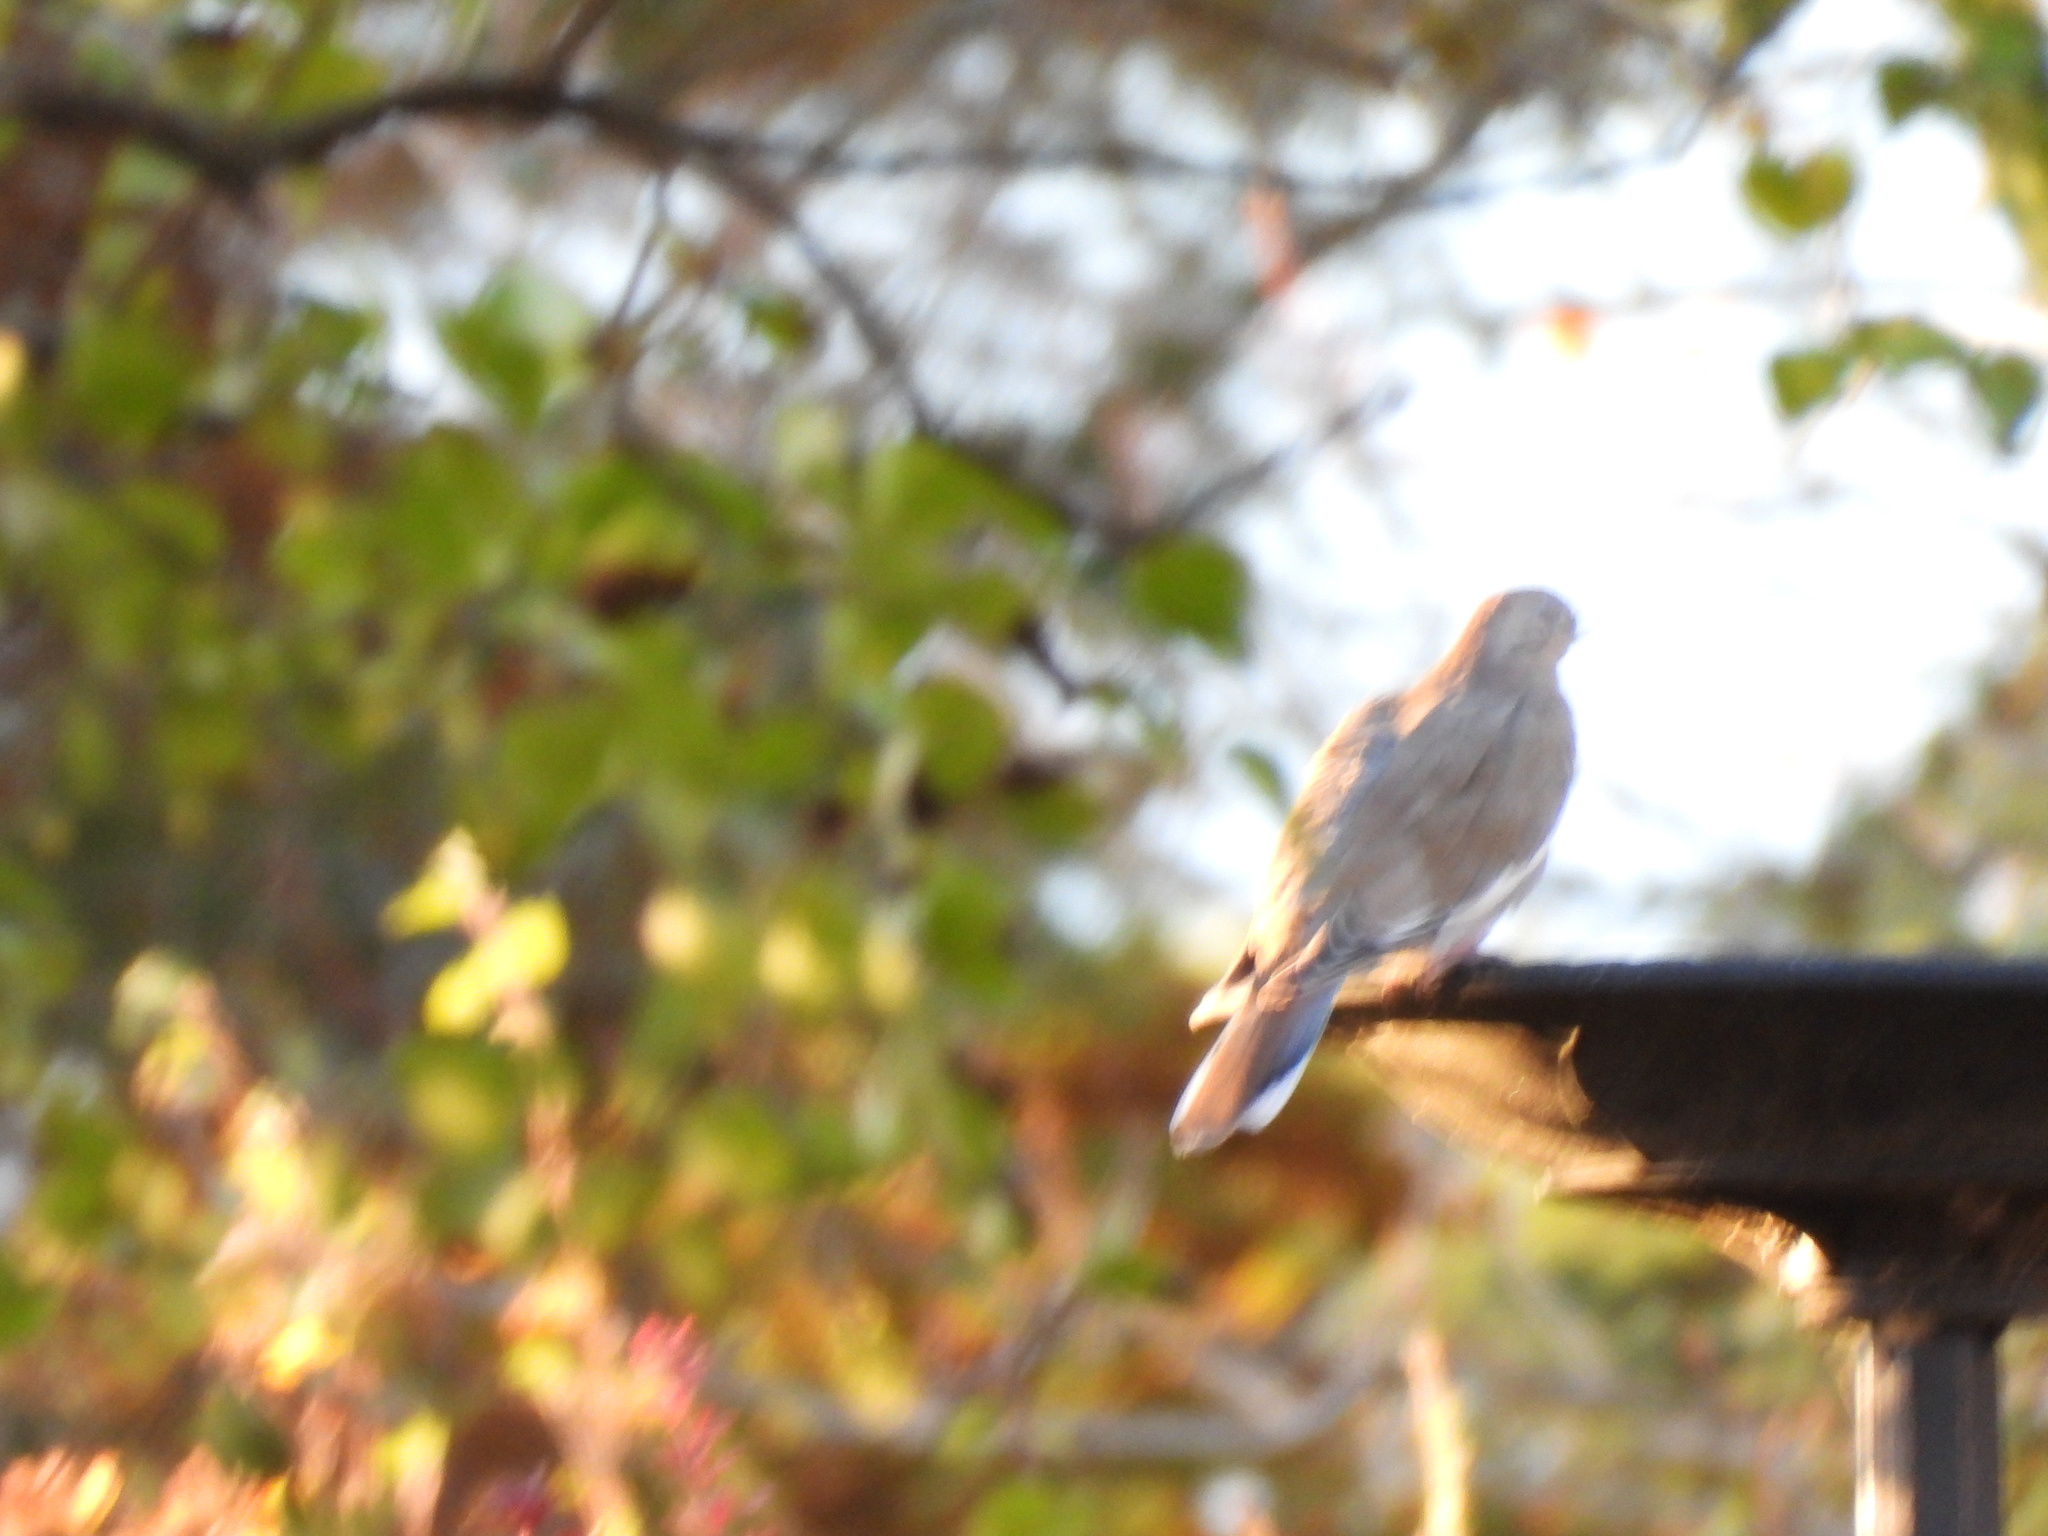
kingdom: Animalia
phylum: Chordata
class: Aves
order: Columbiformes
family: Columbidae
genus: Zenaida
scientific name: Zenaida asiatica
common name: White-winged dove
